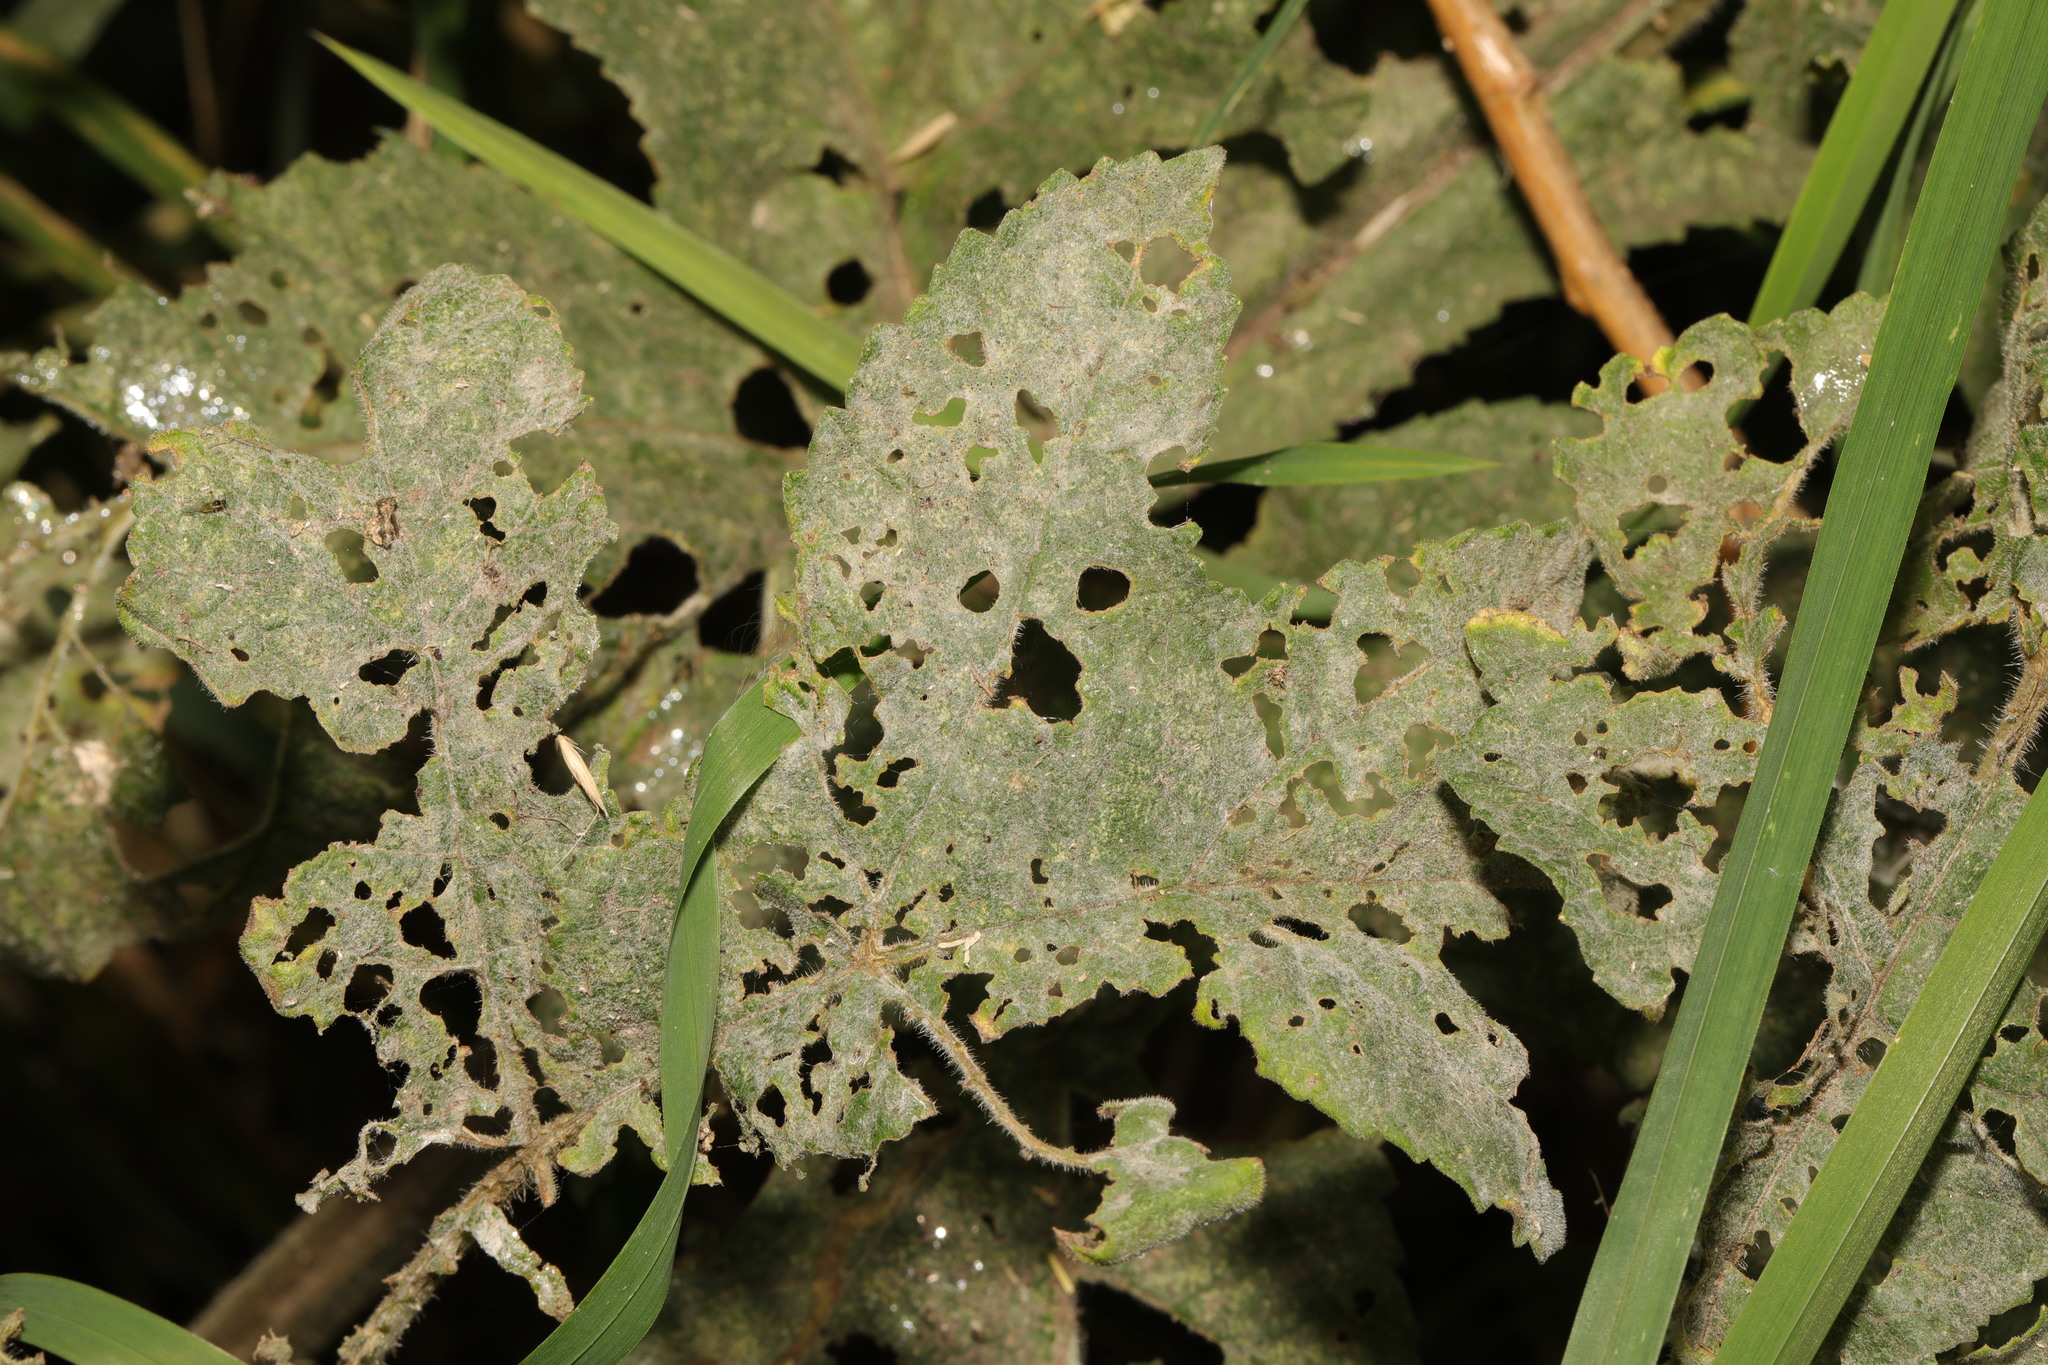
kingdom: Fungi
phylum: Ascomycota
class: Leotiomycetes
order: Helotiales
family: Erysiphaceae
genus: Erysiphe
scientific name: Erysiphe heraclei
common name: Umbellifer mildew
